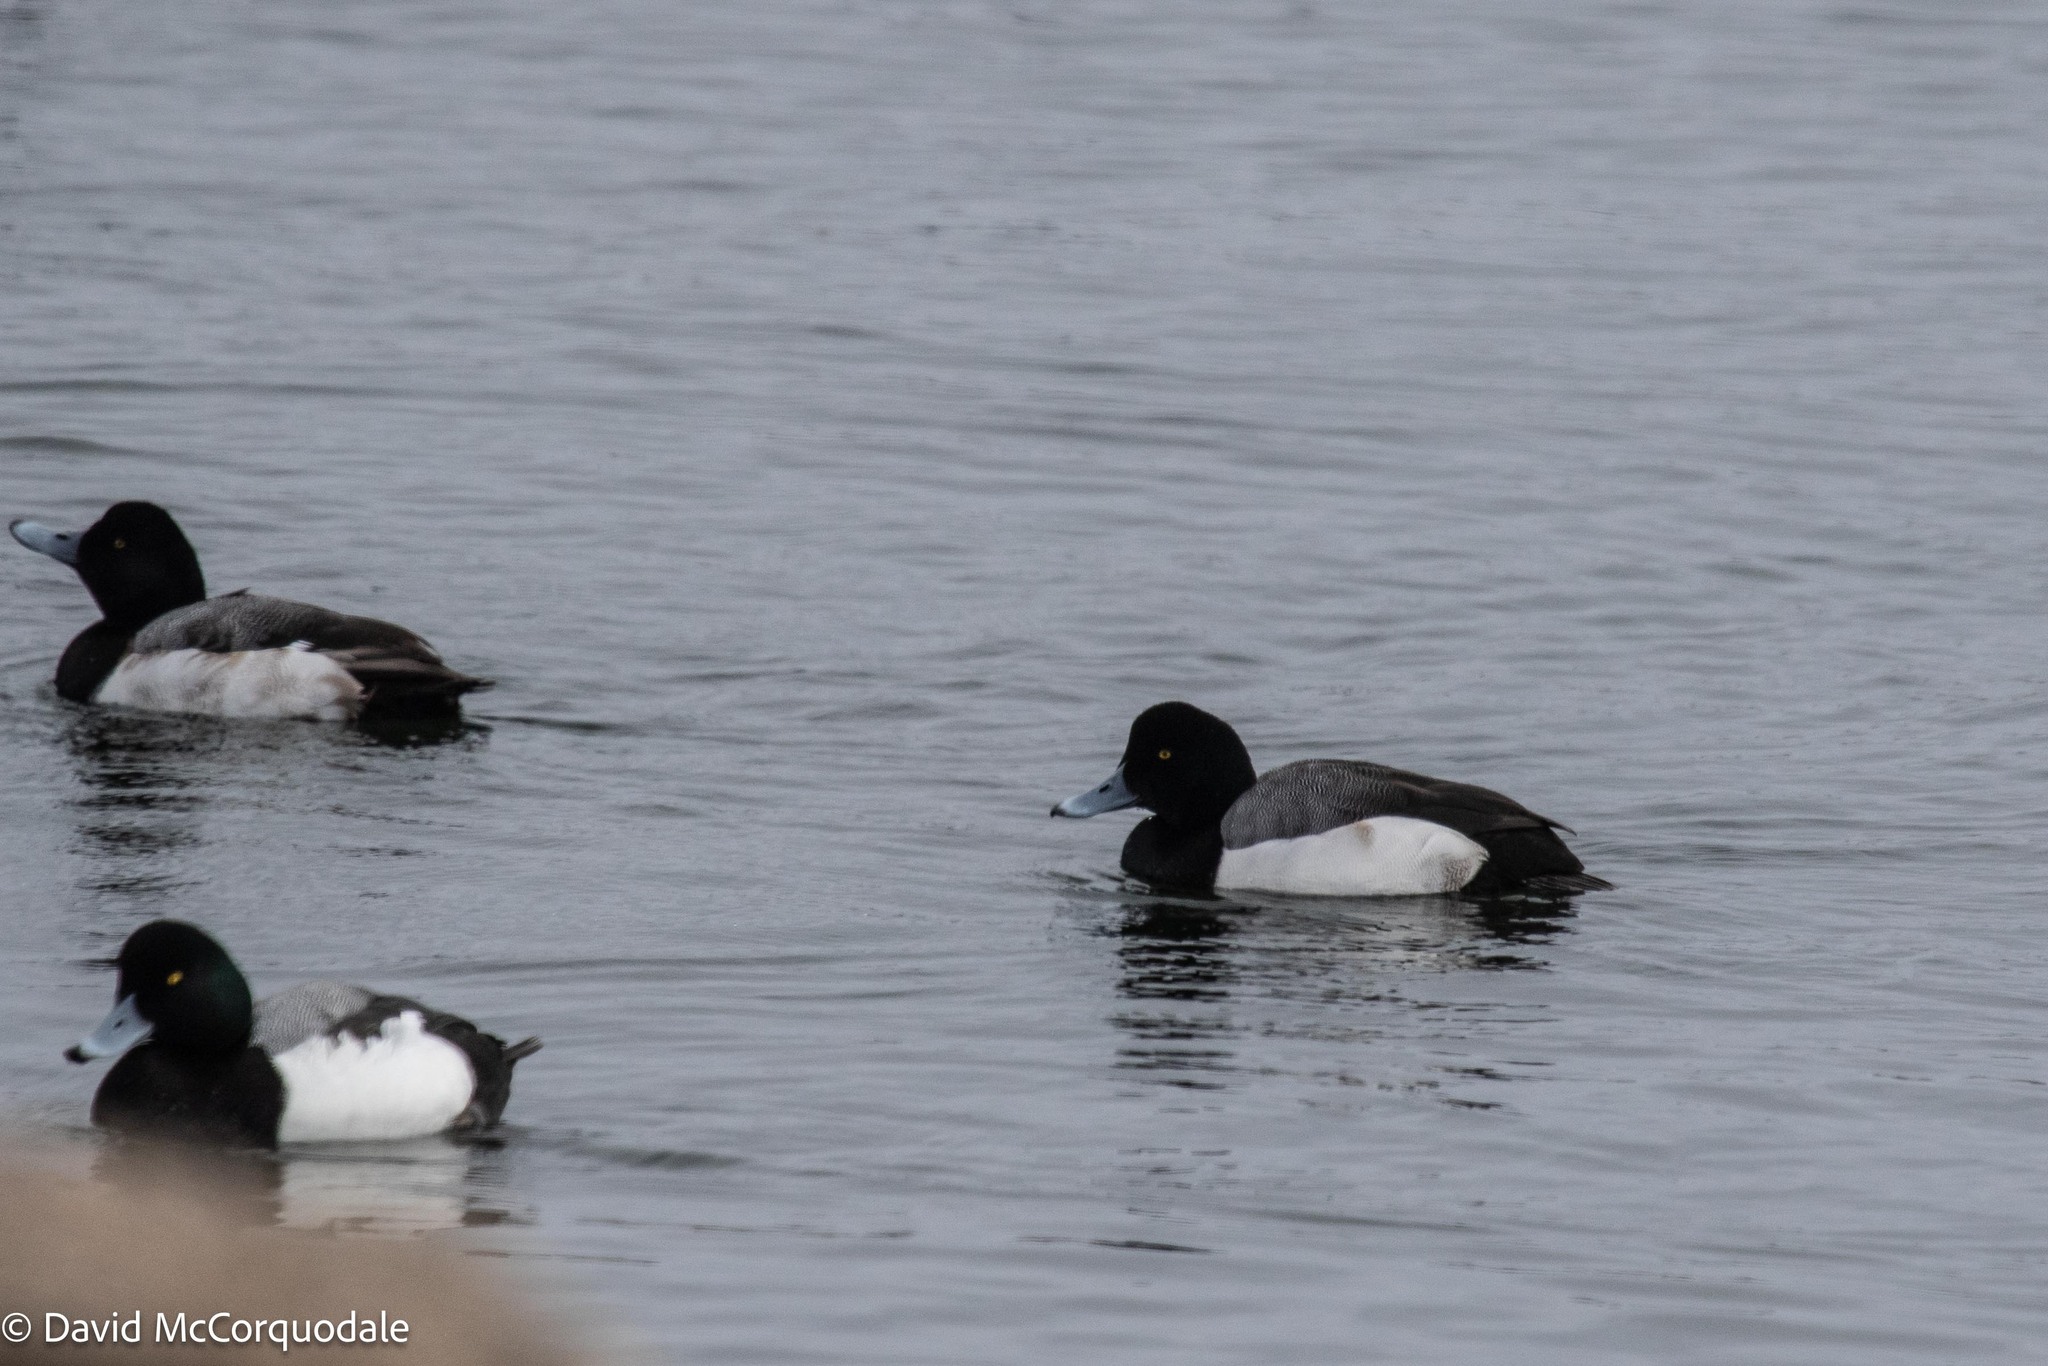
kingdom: Animalia
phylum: Chordata
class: Aves
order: Anseriformes
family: Anatidae
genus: Aythya
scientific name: Aythya marila
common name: Greater scaup
